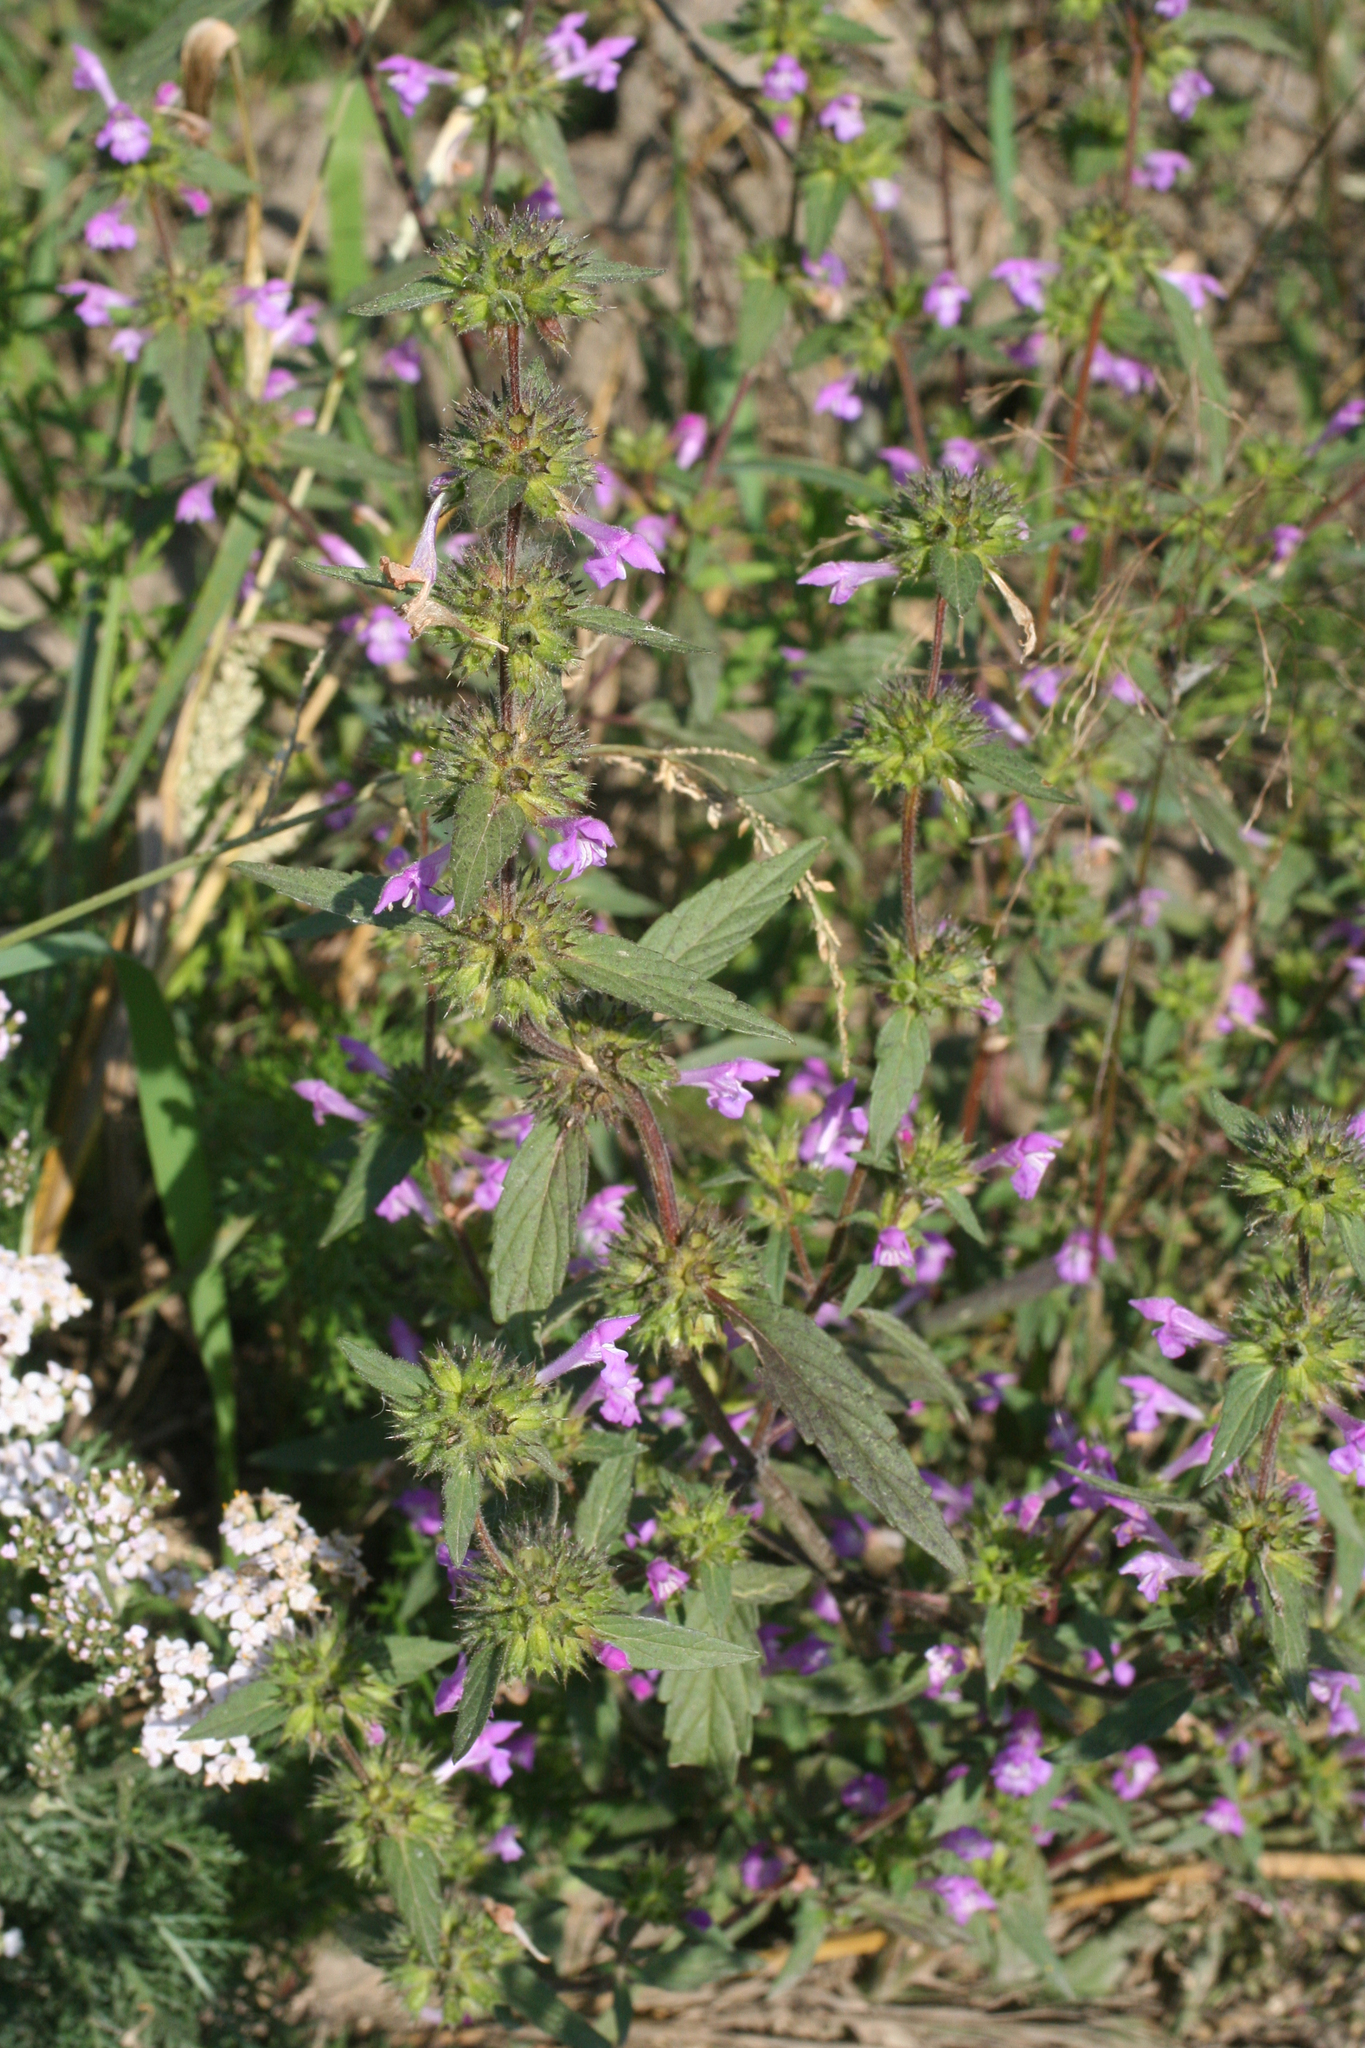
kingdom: Plantae
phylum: Tracheophyta
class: Magnoliopsida
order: Lamiales
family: Lamiaceae
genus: Galeopsis
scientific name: Galeopsis ladanum
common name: Broad-leaved hemp-nettle
